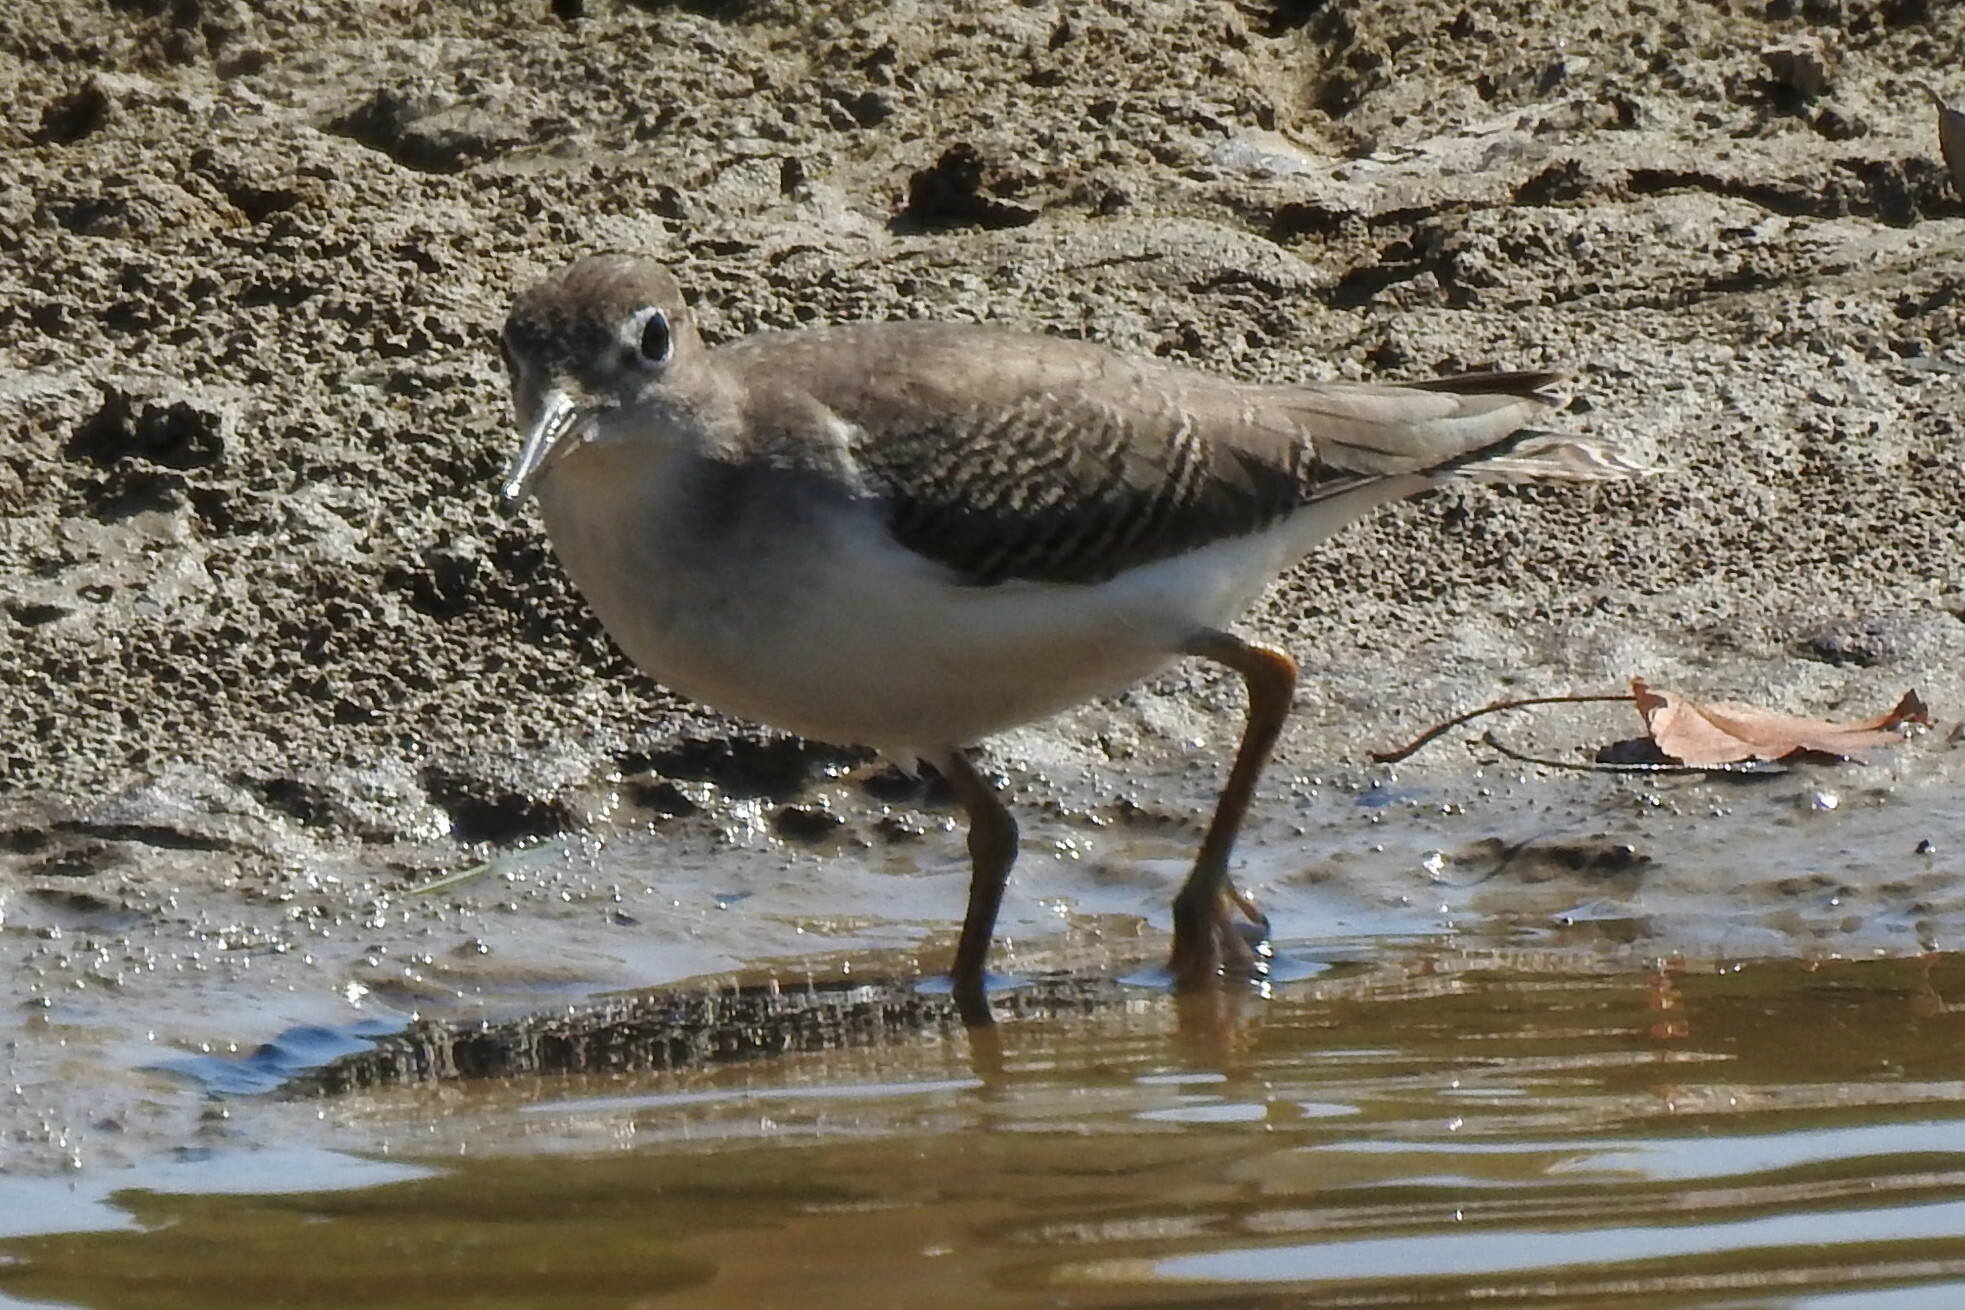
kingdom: Animalia
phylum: Chordata
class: Aves
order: Charadriiformes
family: Scolopacidae
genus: Actitis
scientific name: Actitis macularius
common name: Spotted sandpiper
